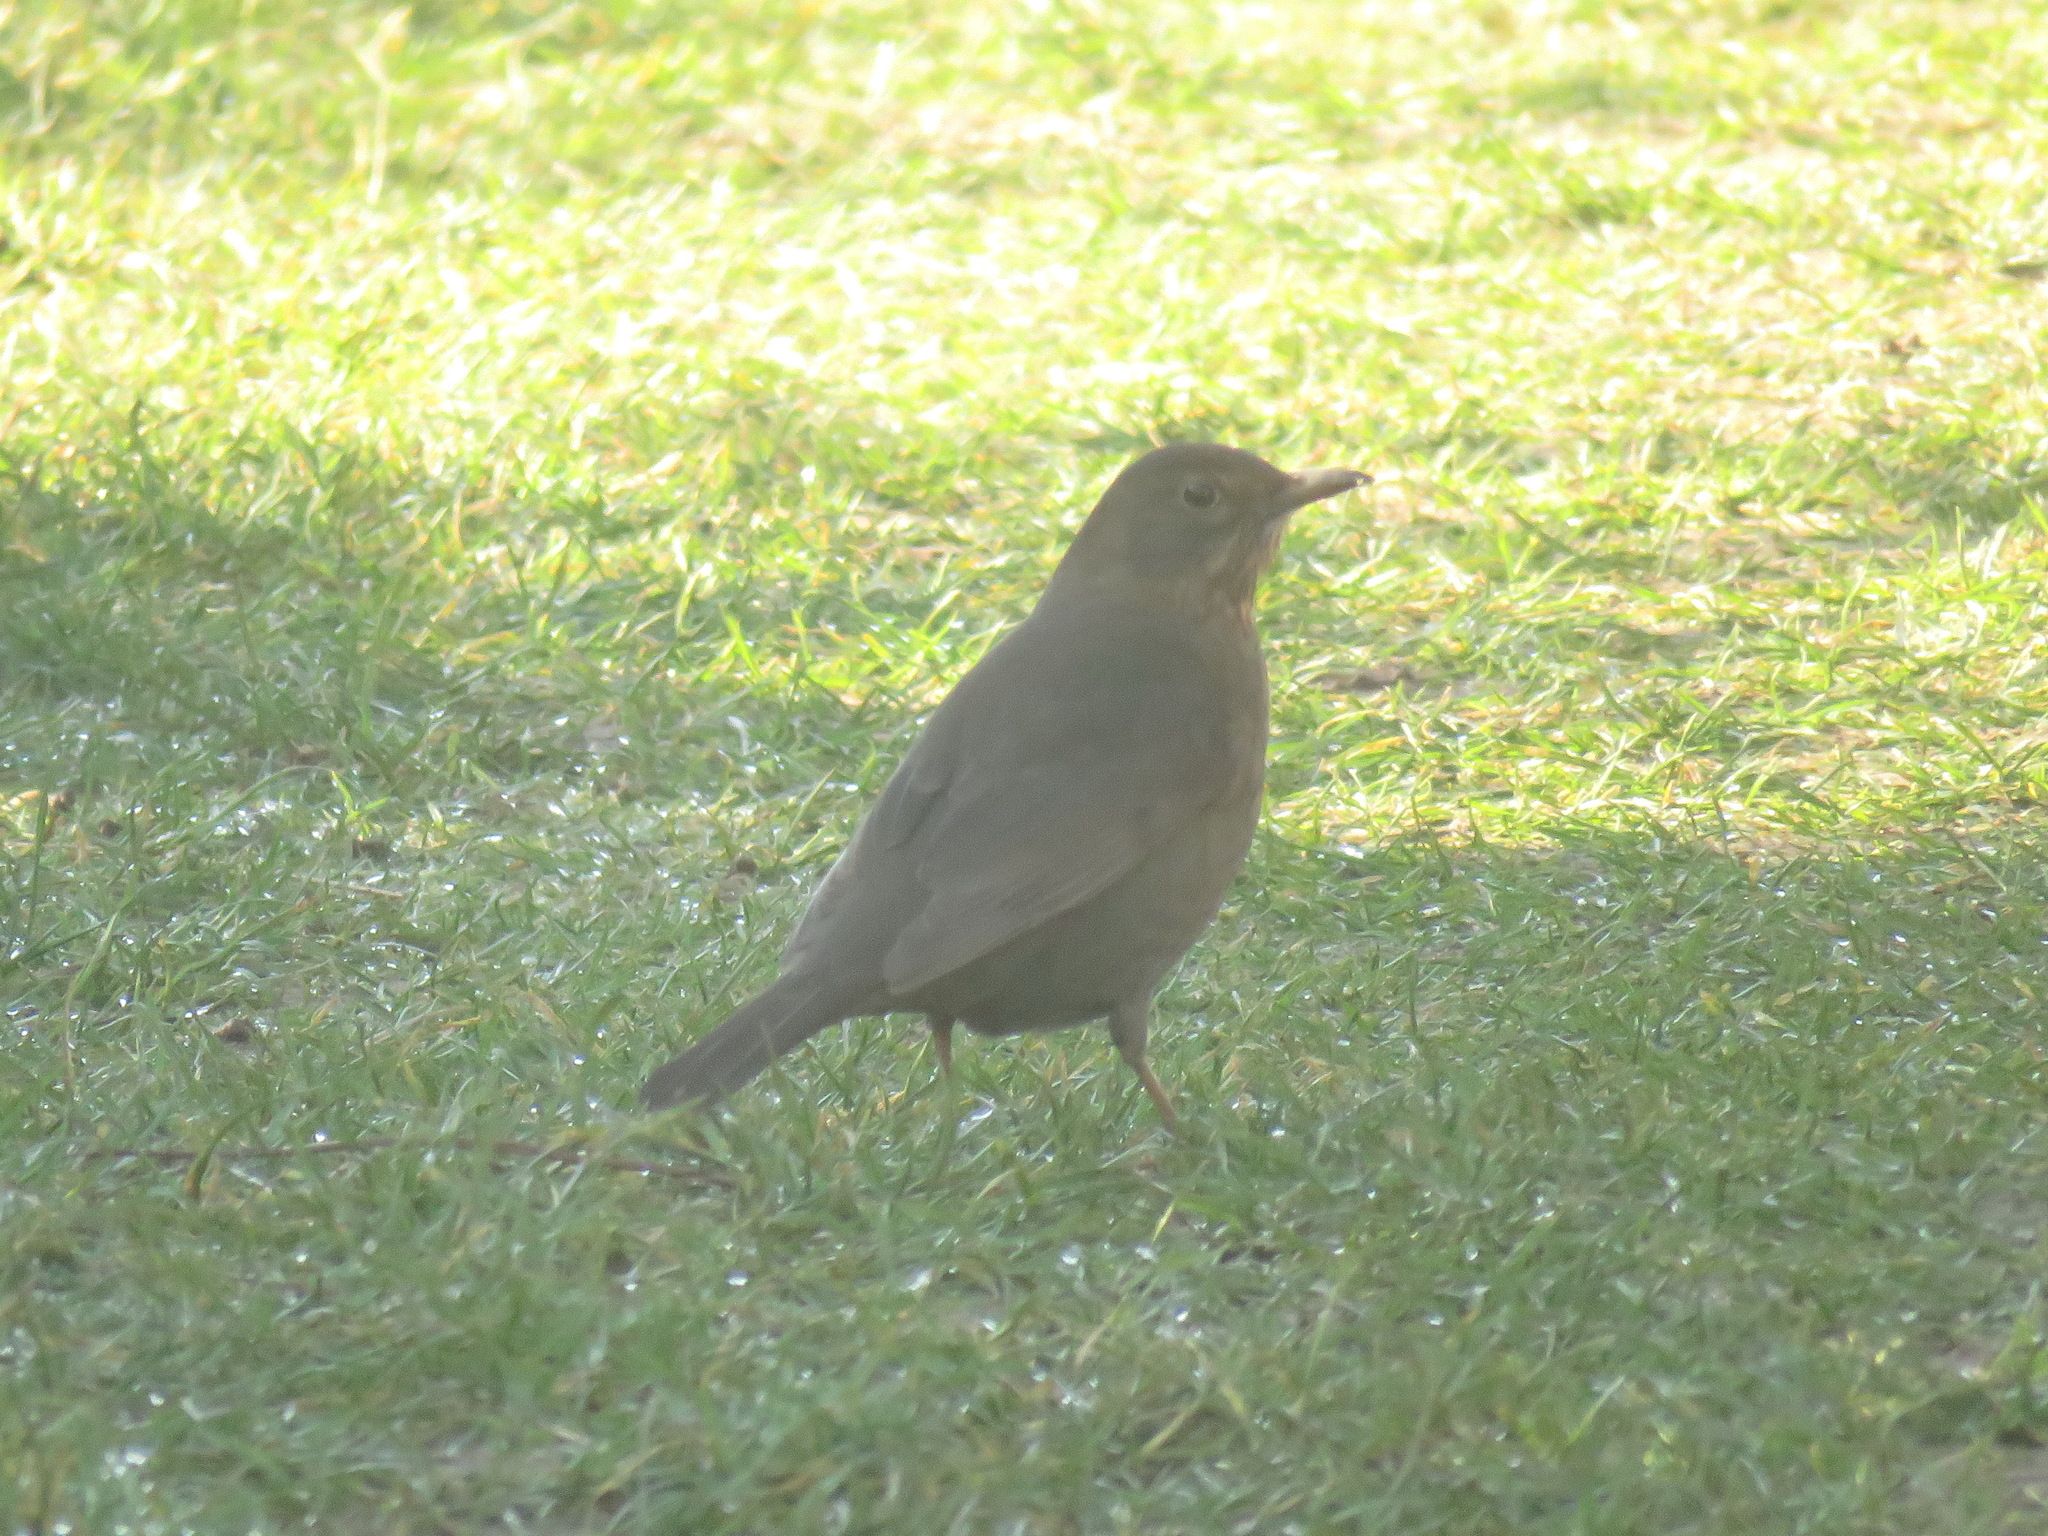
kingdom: Animalia
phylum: Chordata
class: Aves
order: Passeriformes
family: Turdidae
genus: Turdus
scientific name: Turdus merula
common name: Common blackbird
